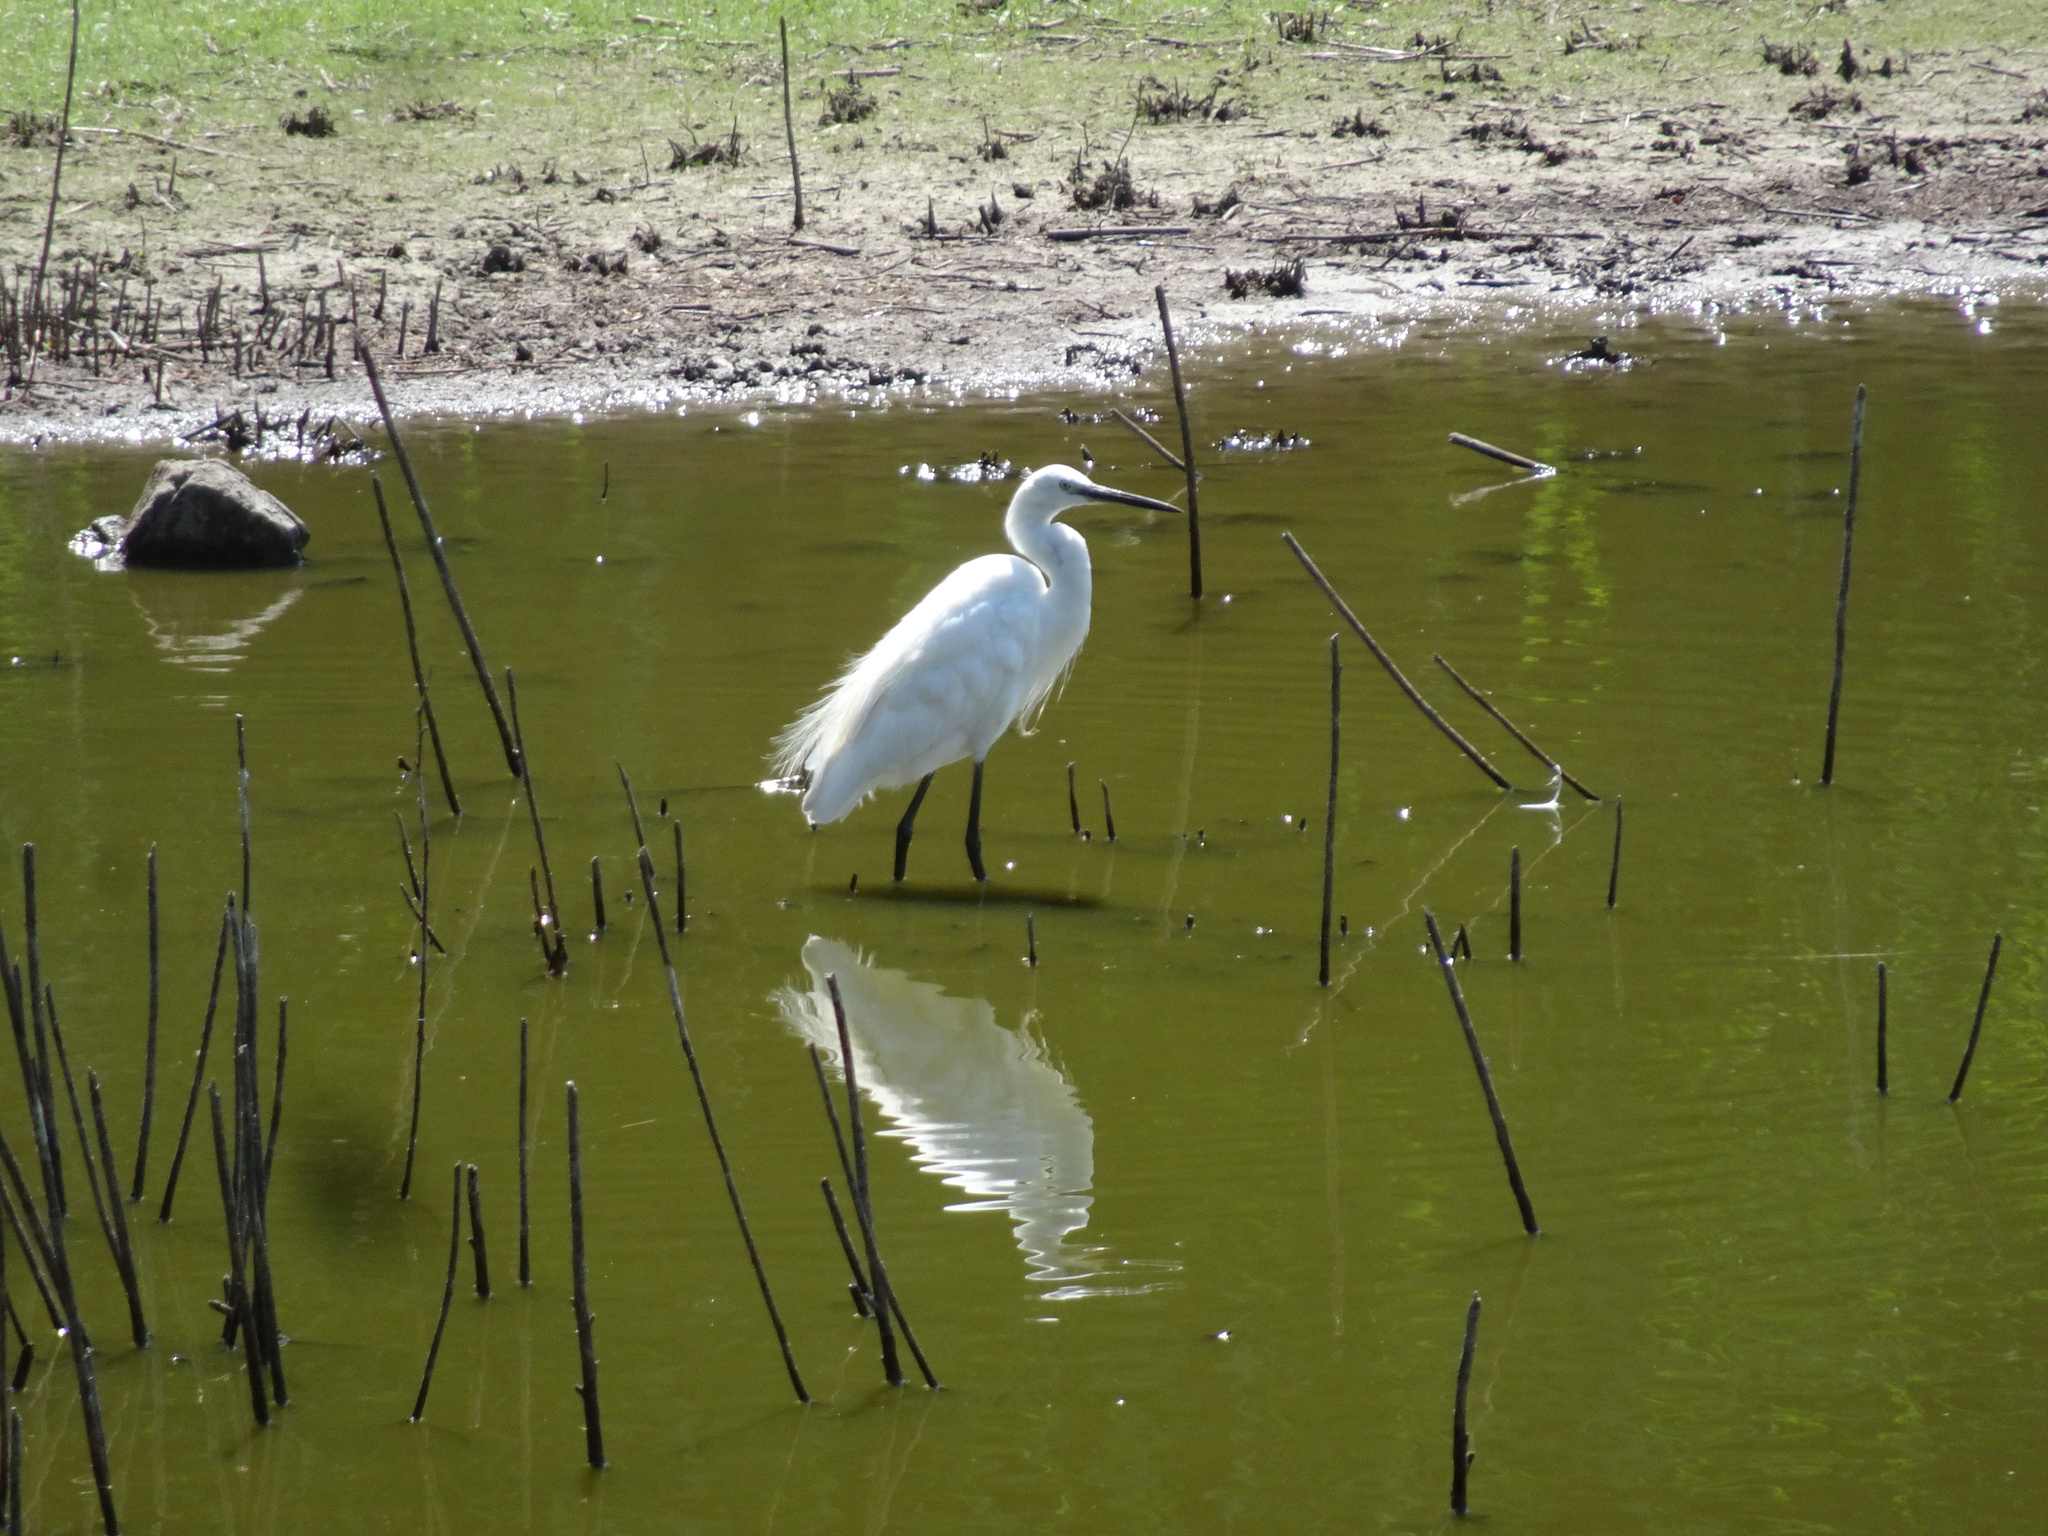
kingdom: Animalia
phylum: Chordata
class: Aves
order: Pelecaniformes
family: Ardeidae
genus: Egretta
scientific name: Egretta garzetta
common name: Little egret
